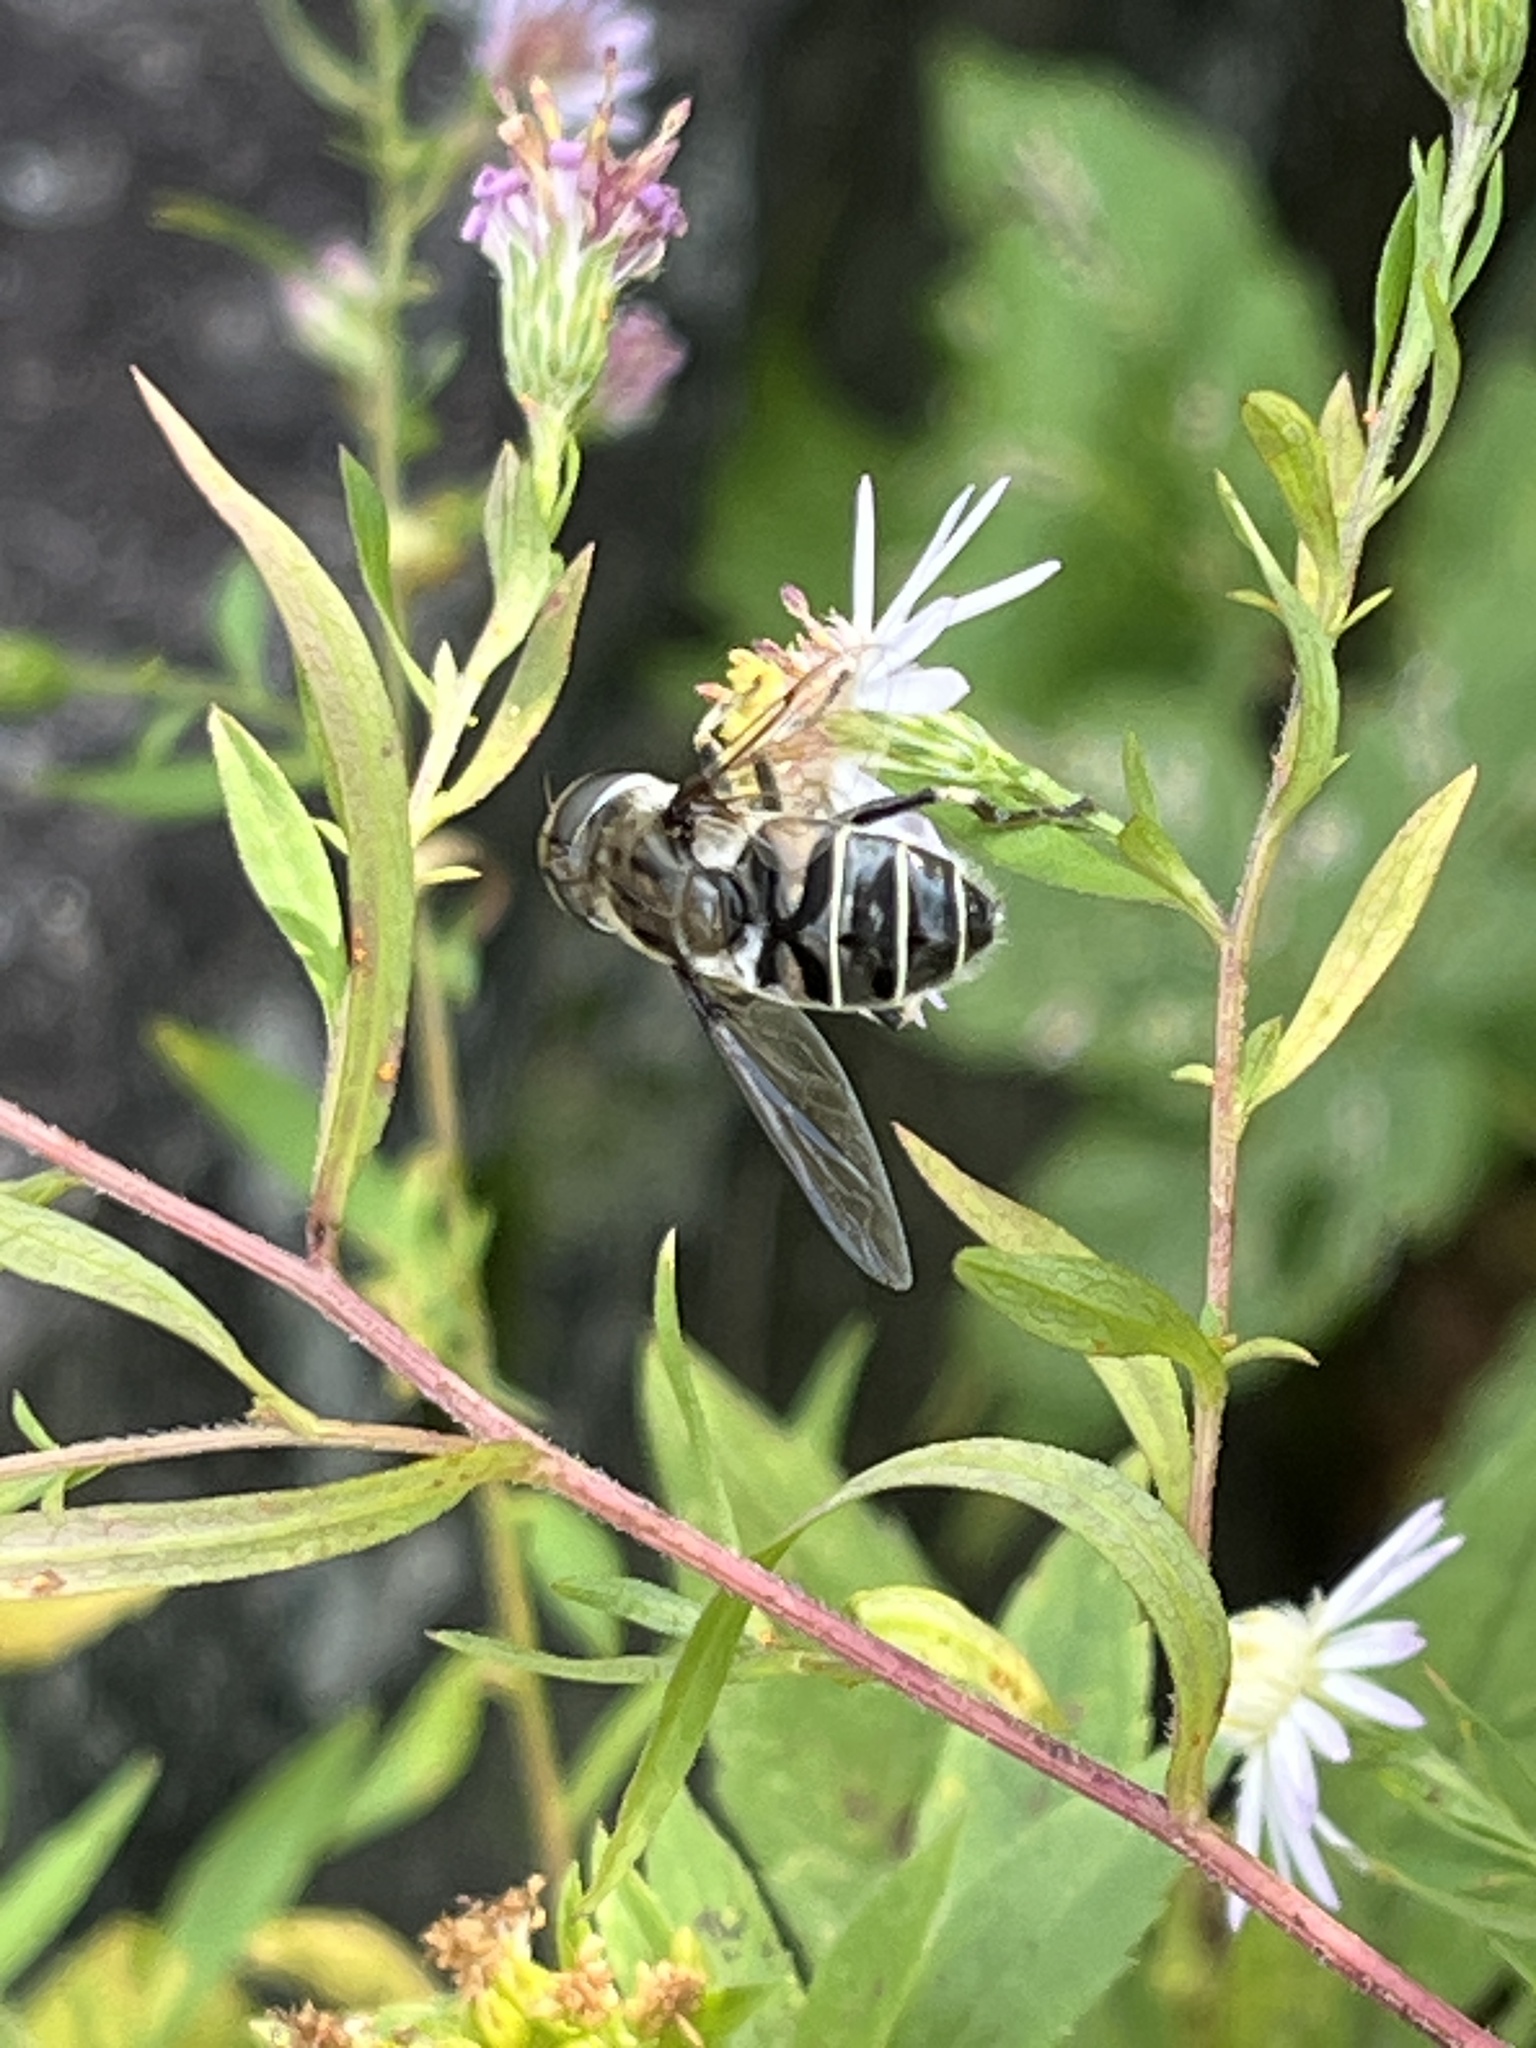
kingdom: Animalia
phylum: Arthropoda
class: Insecta
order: Diptera
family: Syrphidae
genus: Eristalis
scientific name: Eristalis dimidiata
